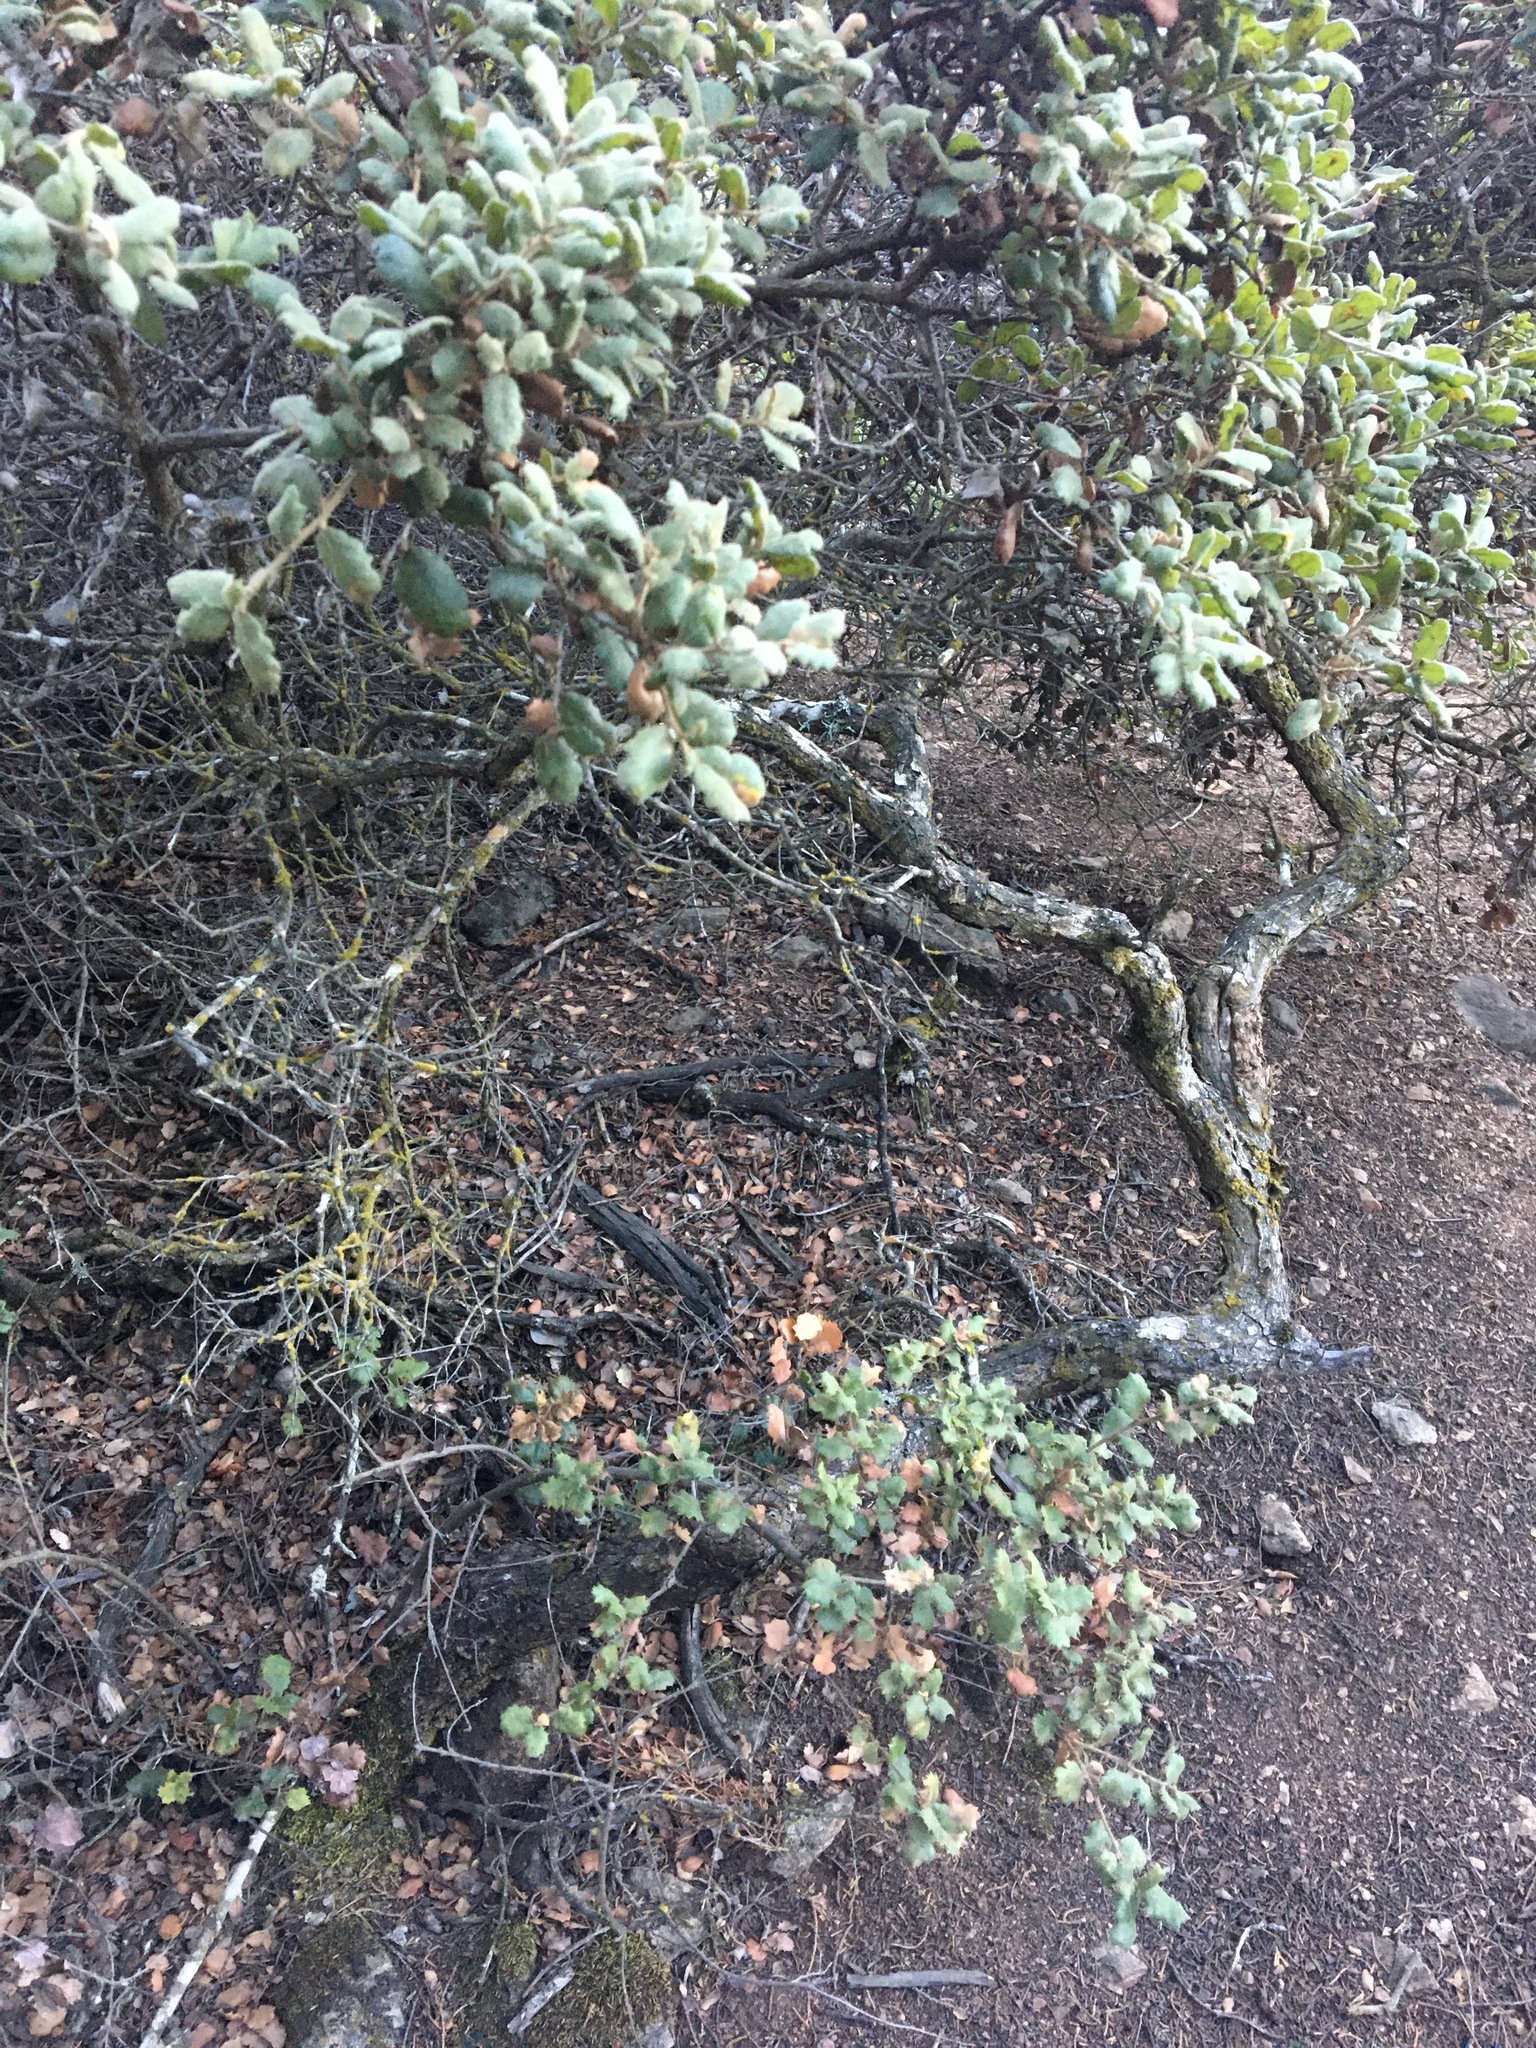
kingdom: Plantae
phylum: Tracheophyta
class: Magnoliopsida
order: Fagales
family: Fagaceae
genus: Quercus
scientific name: Quercus durata
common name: Leather oak
